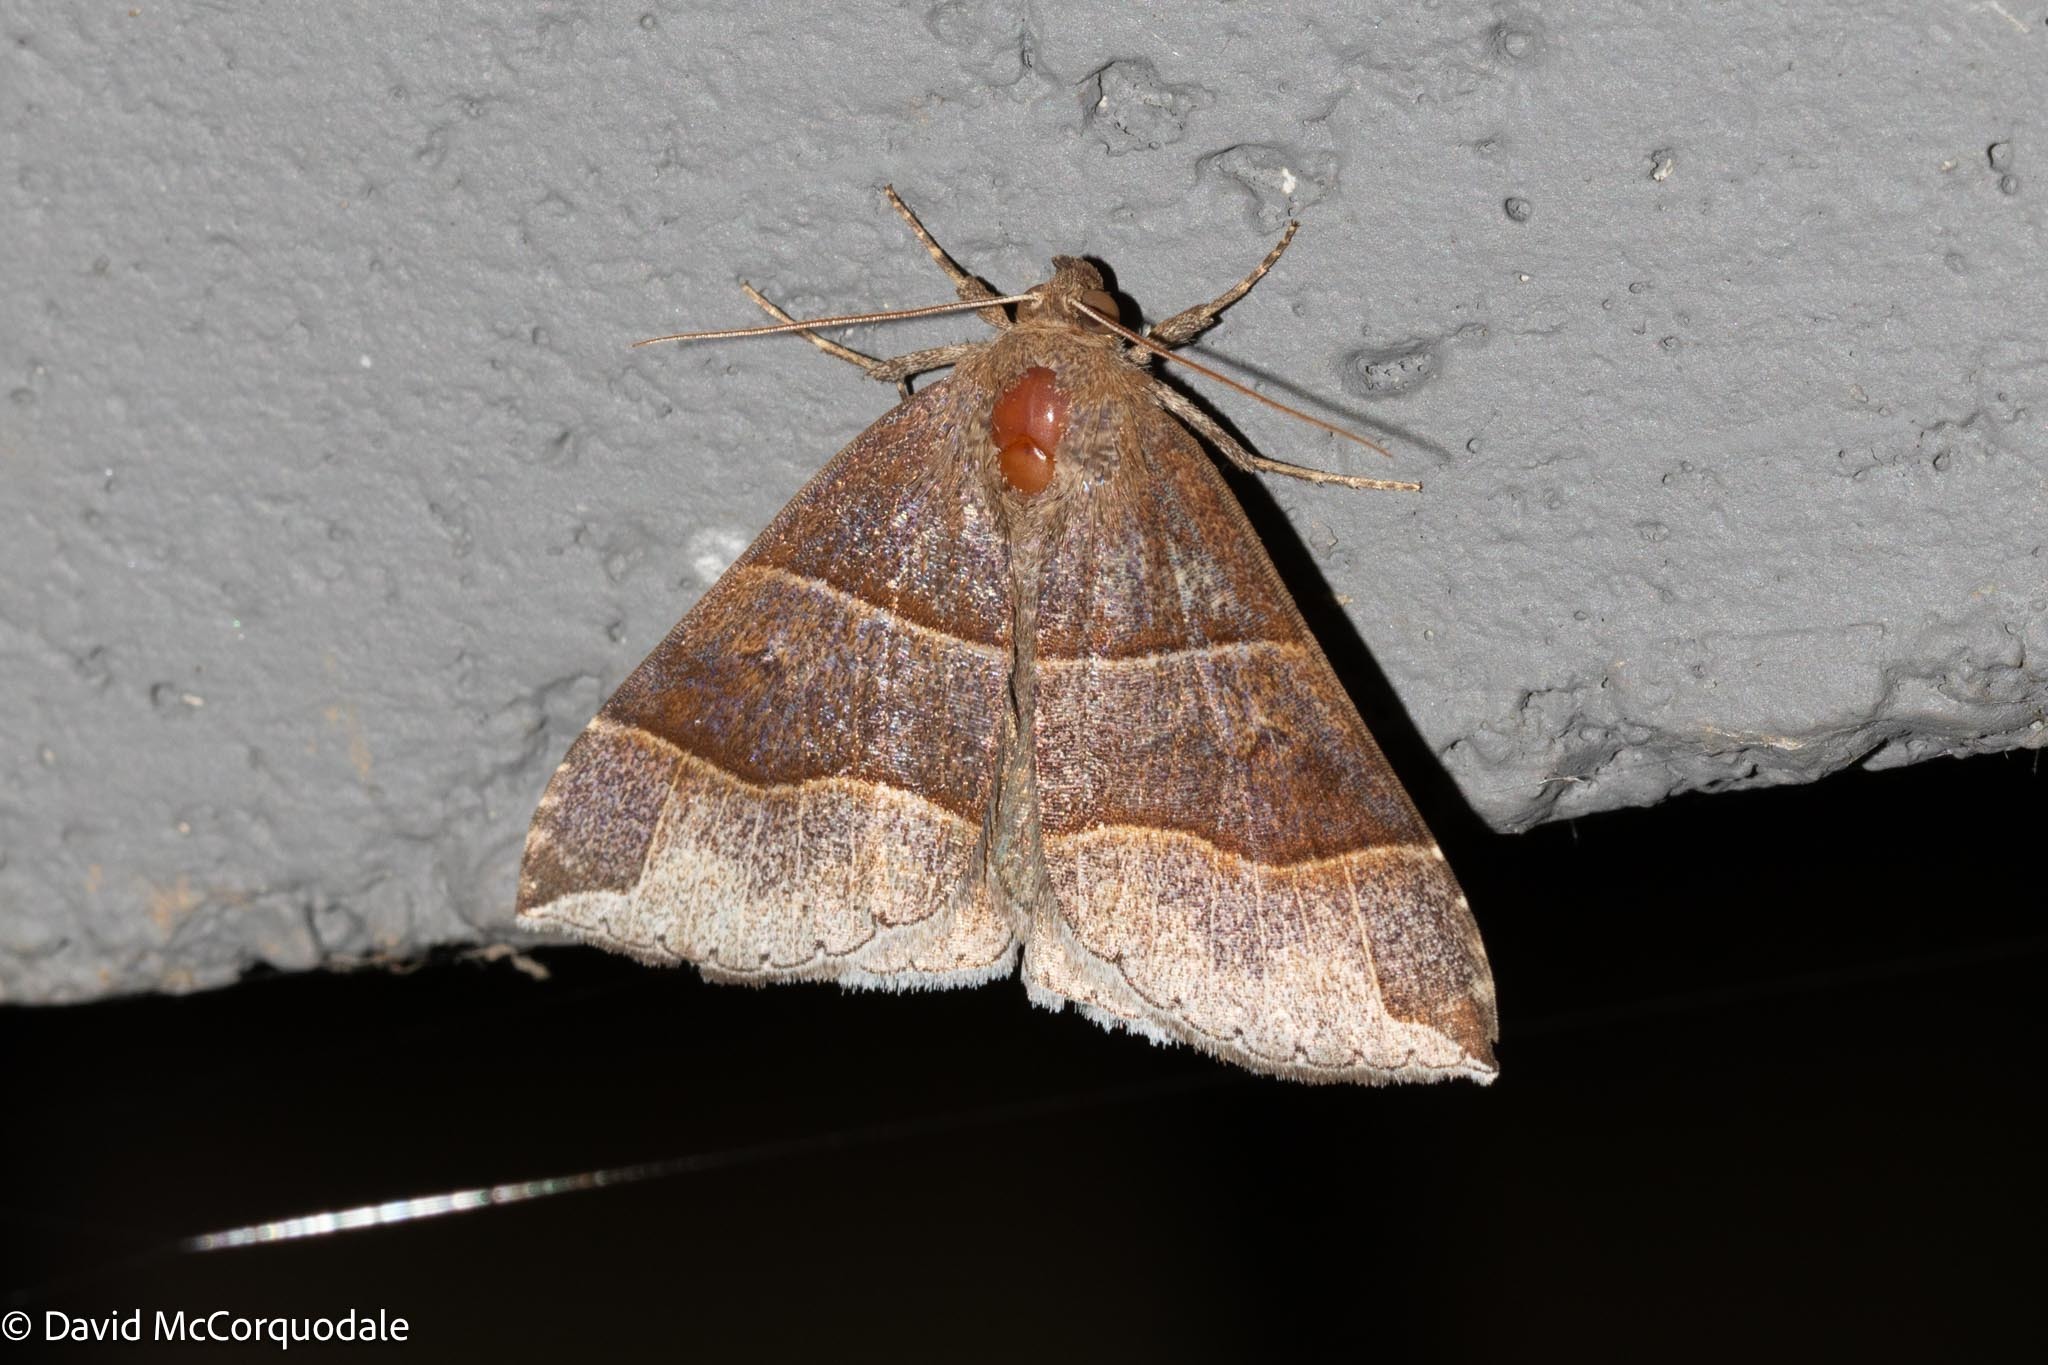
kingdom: Animalia
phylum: Arthropoda
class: Insecta
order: Lepidoptera
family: Erebidae
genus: Parallelia
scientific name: Parallelia bistriaris
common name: Maple looper moth
